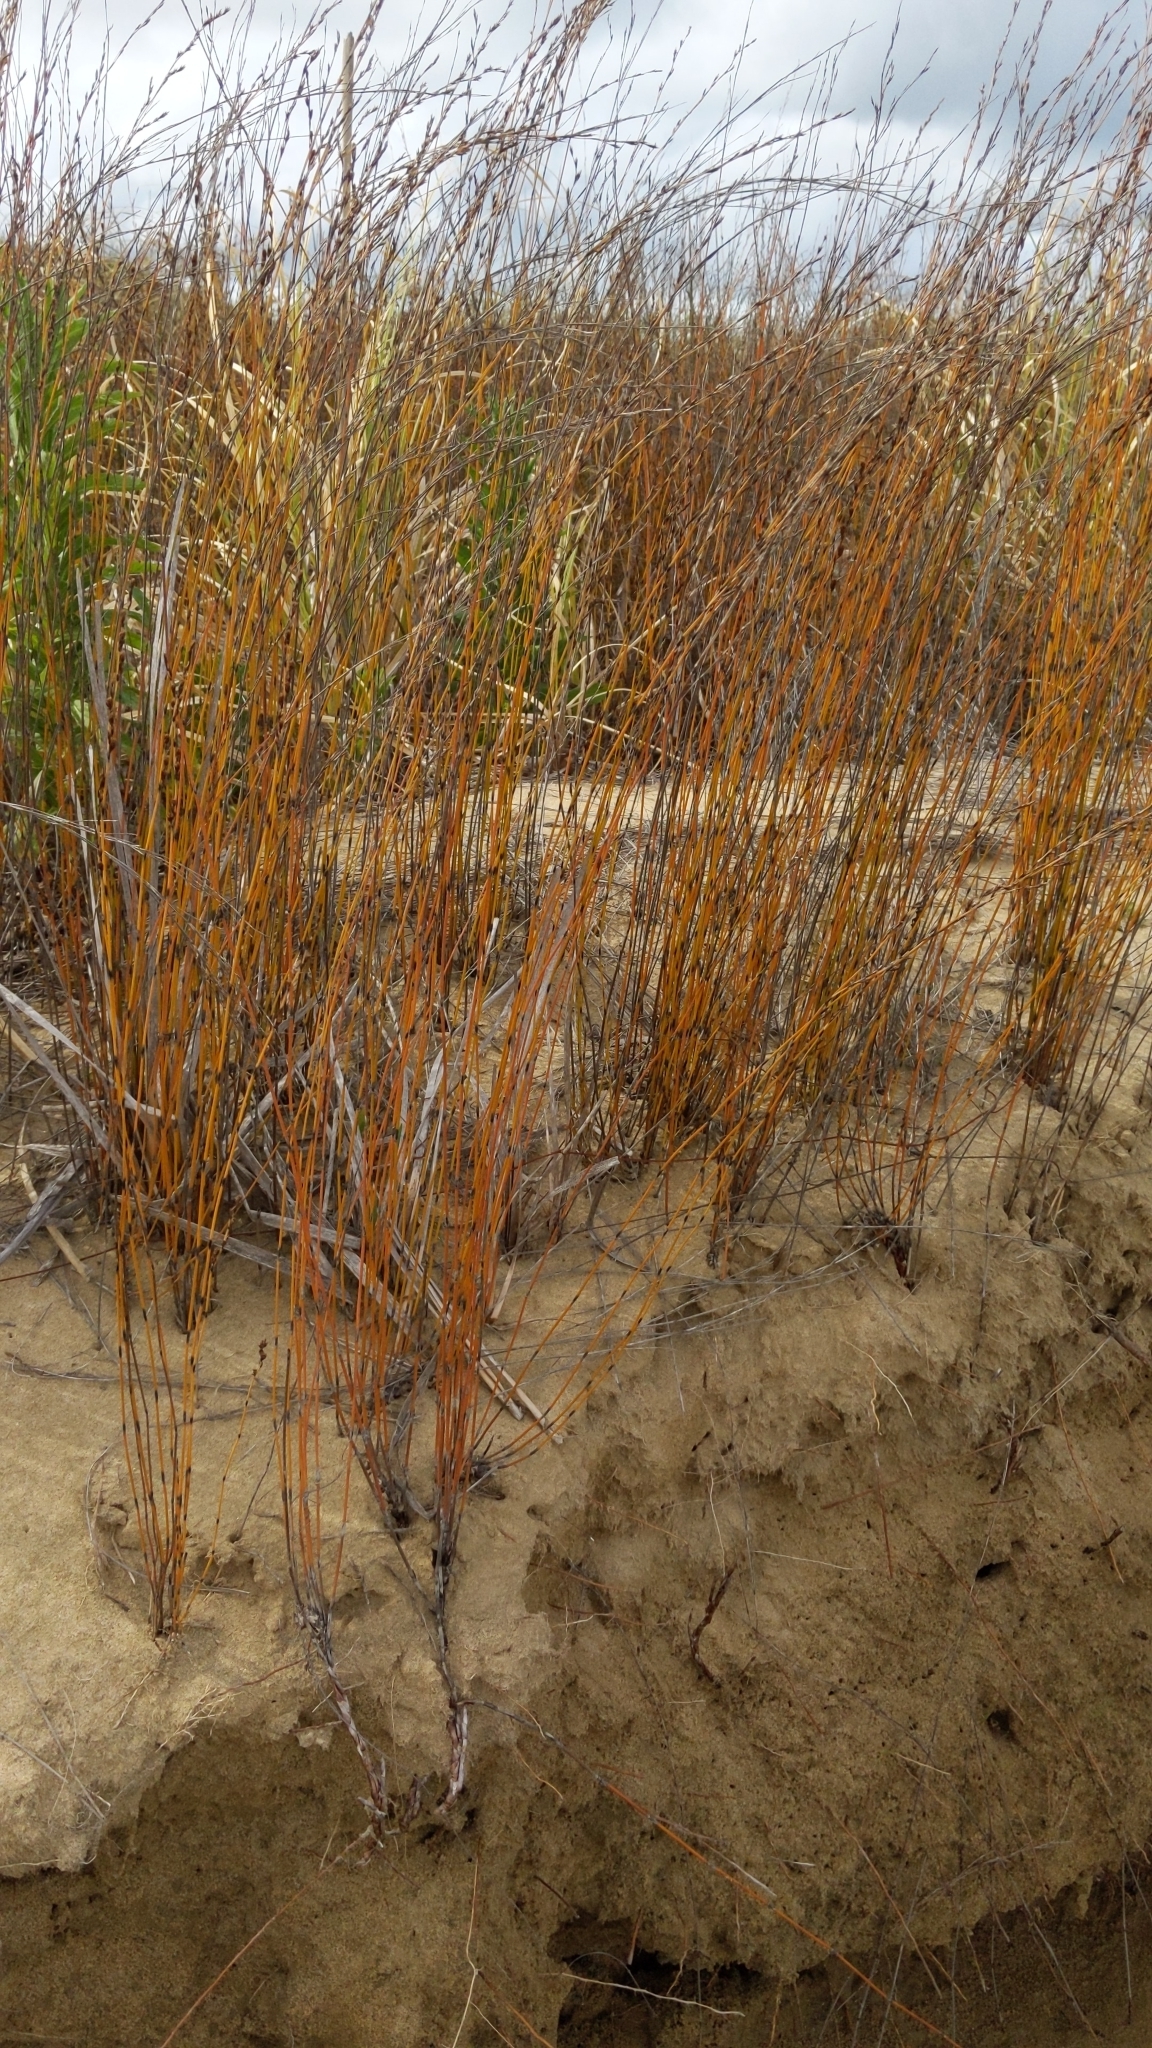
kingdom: Plantae
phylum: Tracheophyta
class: Liliopsida
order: Poales
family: Restionaceae
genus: Apodasmia
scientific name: Apodasmia similis
